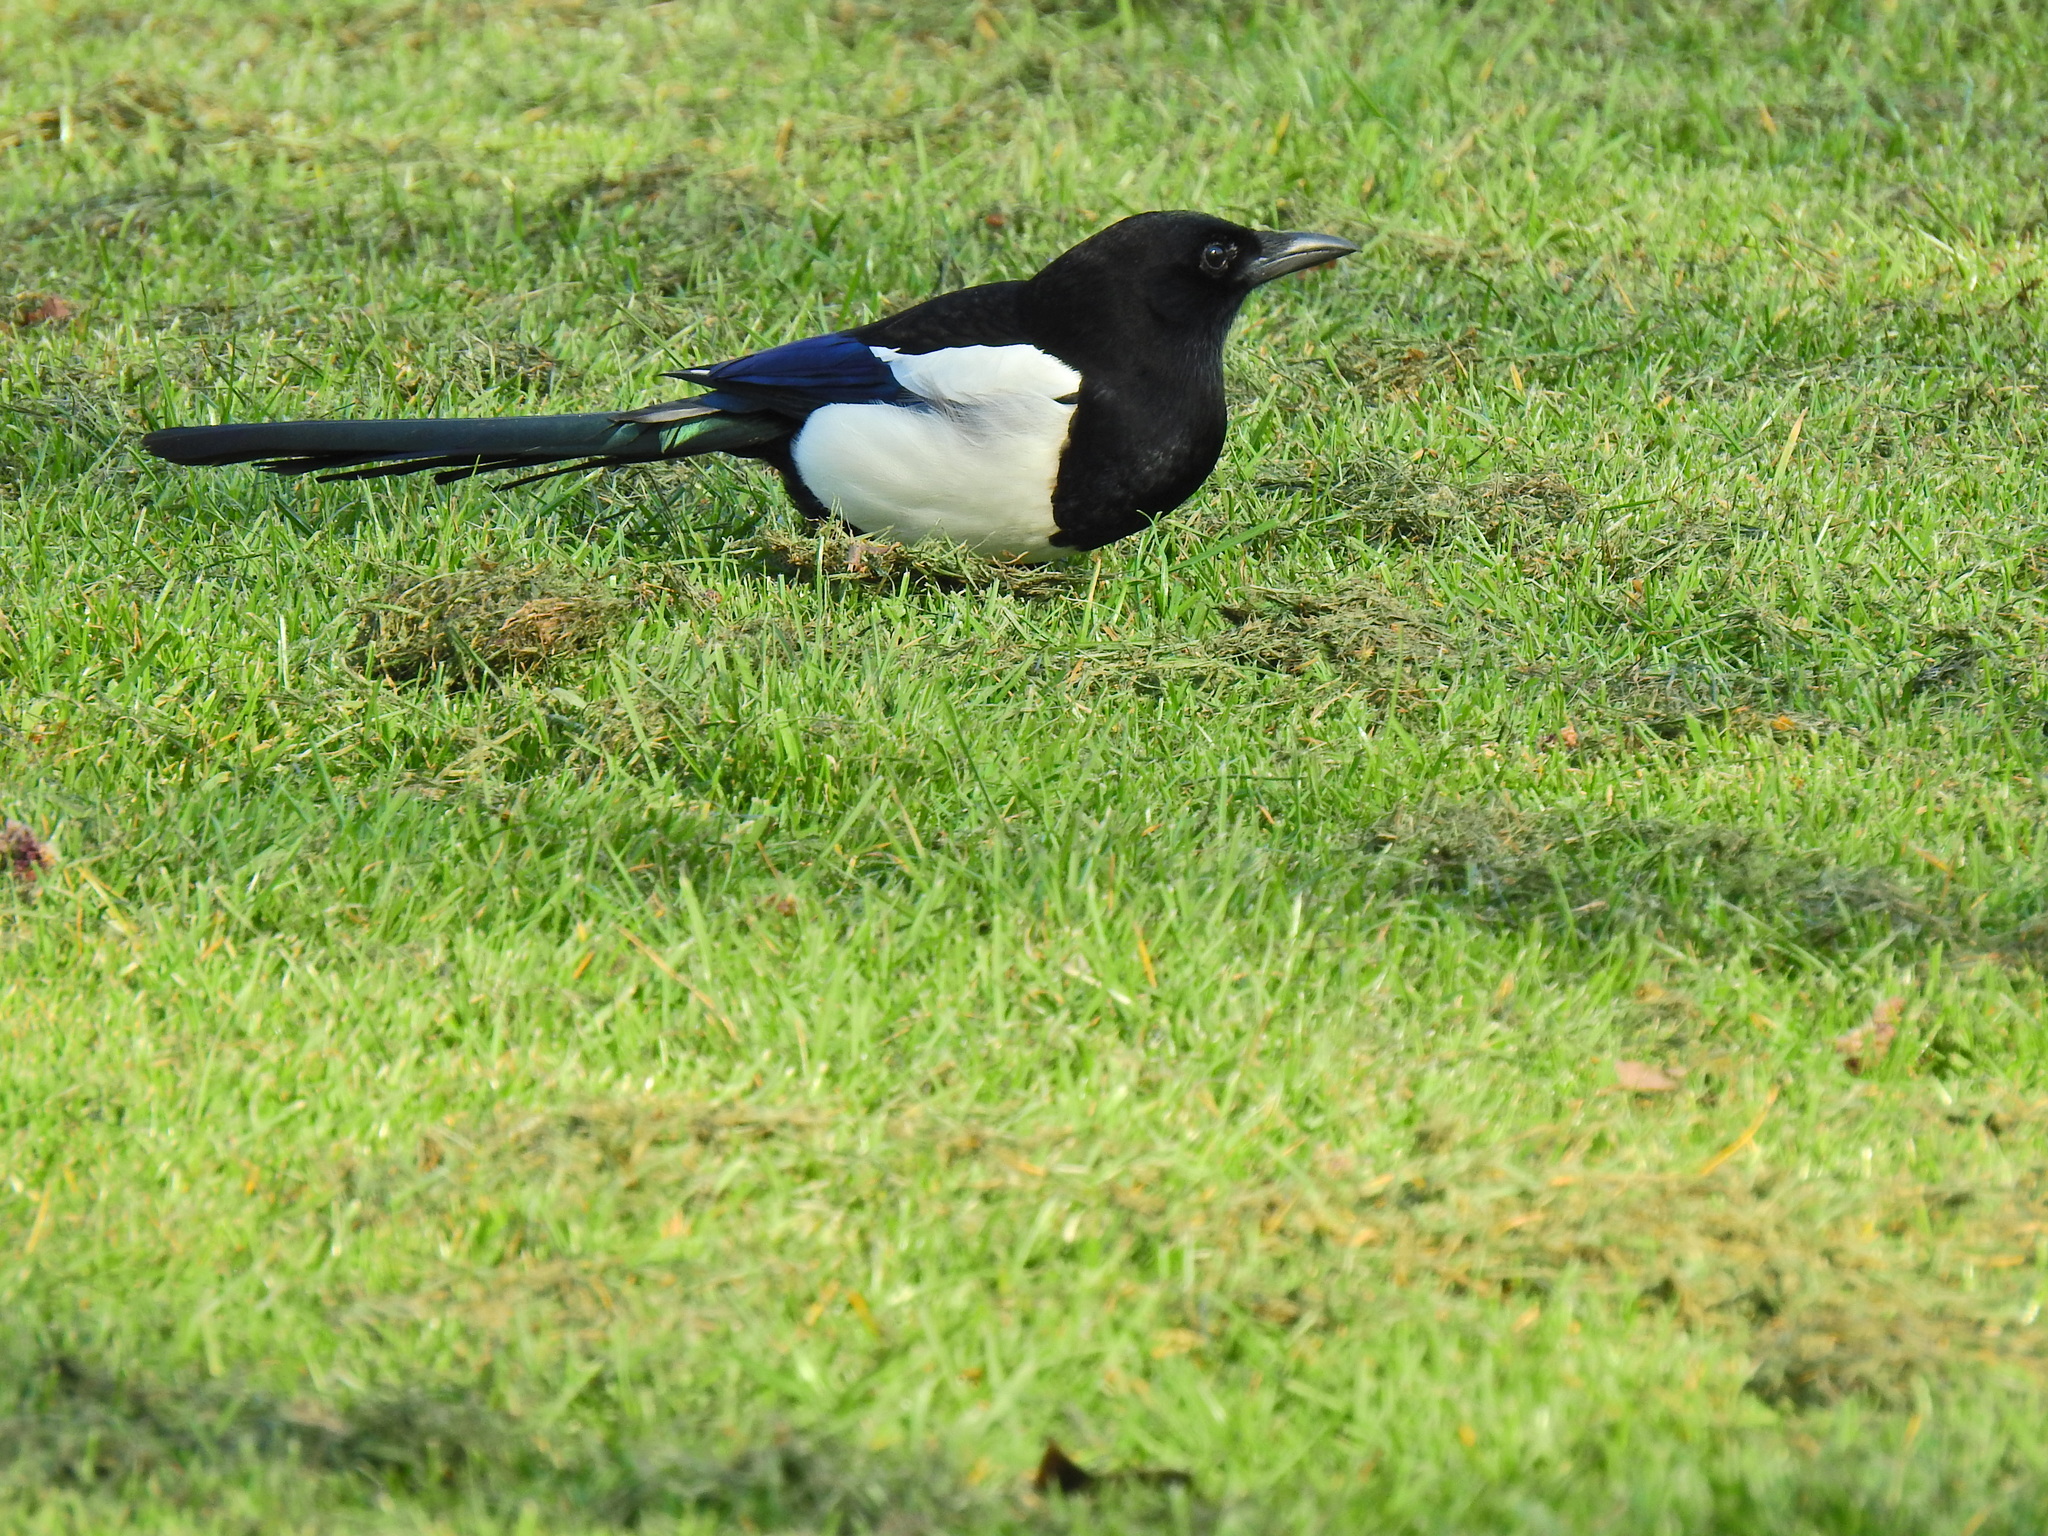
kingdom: Animalia
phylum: Chordata
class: Aves
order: Passeriformes
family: Corvidae
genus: Pica
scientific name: Pica pica
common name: Eurasian magpie
